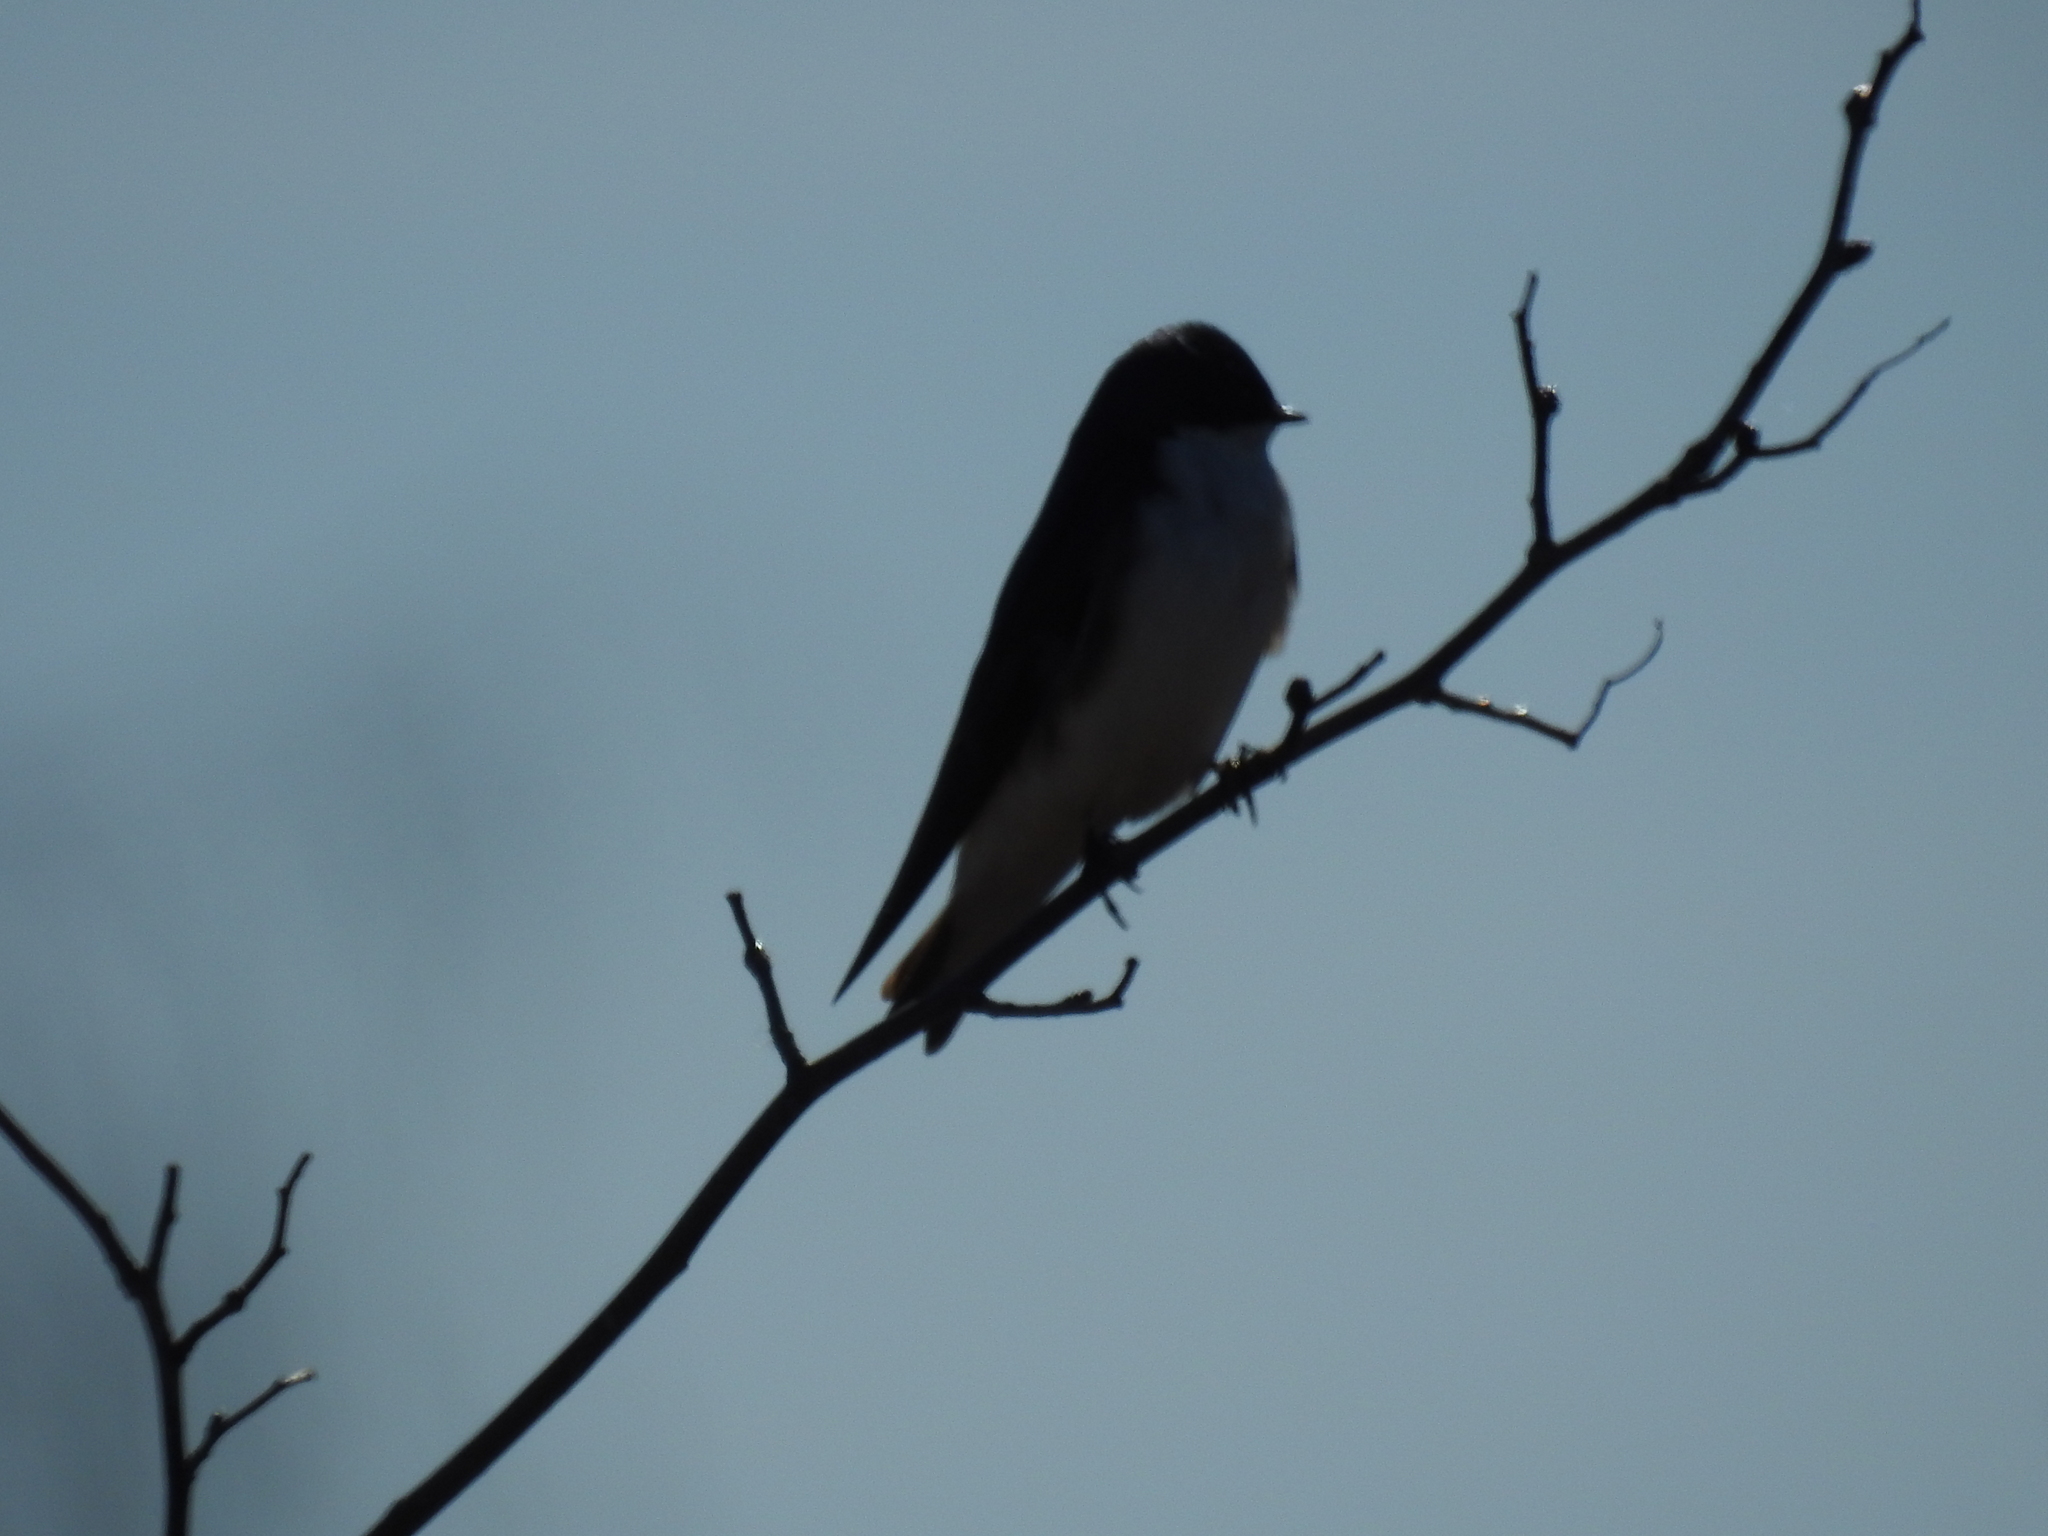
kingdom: Animalia
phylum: Chordata
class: Aves
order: Passeriformes
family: Hirundinidae
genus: Tachycineta
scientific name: Tachycineta bicolor
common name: Tree swallow
